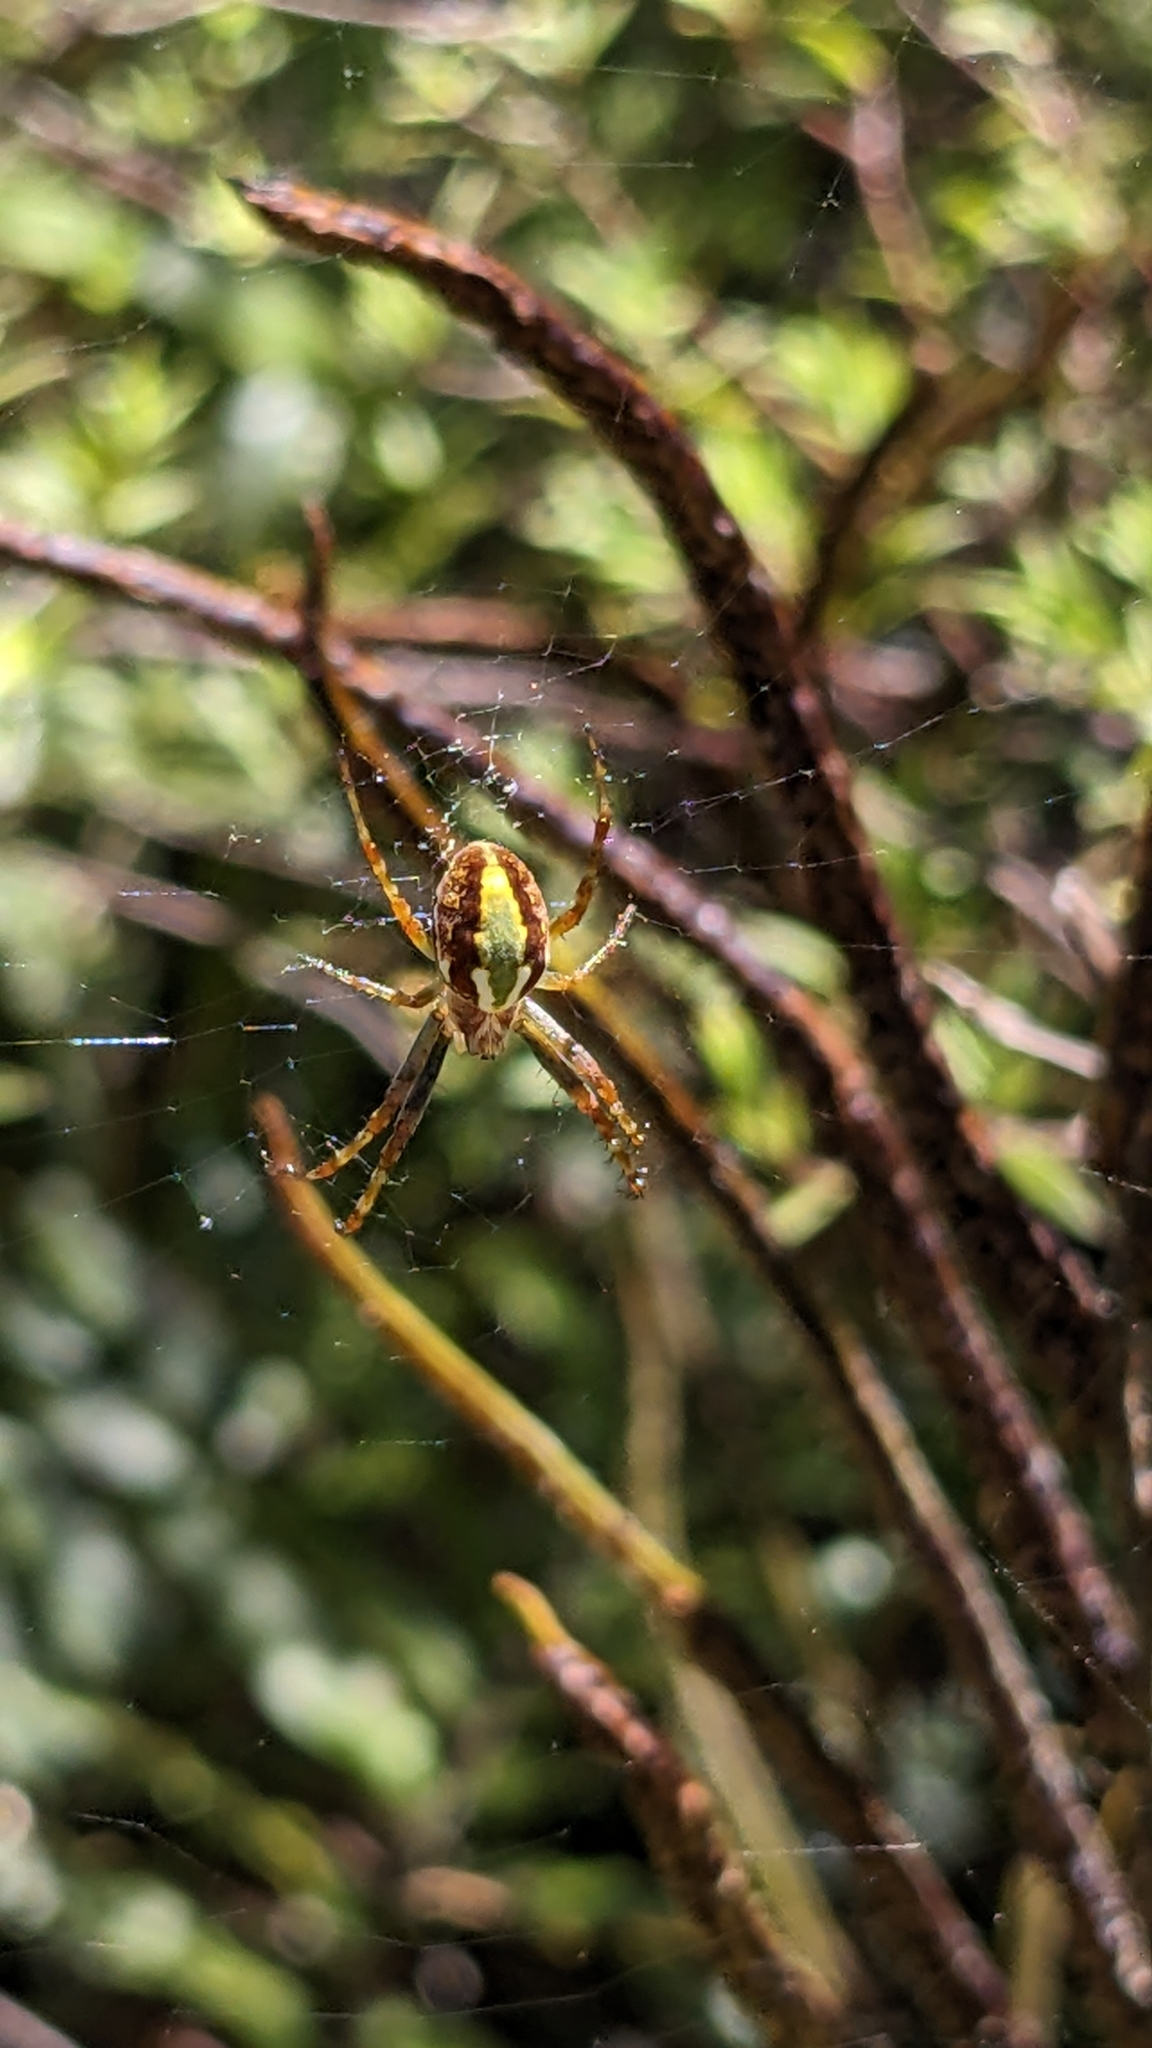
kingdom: Animalia
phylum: Arthropoda
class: Arachnida
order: Araneae
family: Araneidae
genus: Novaranea
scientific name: Novaranea queribunda
